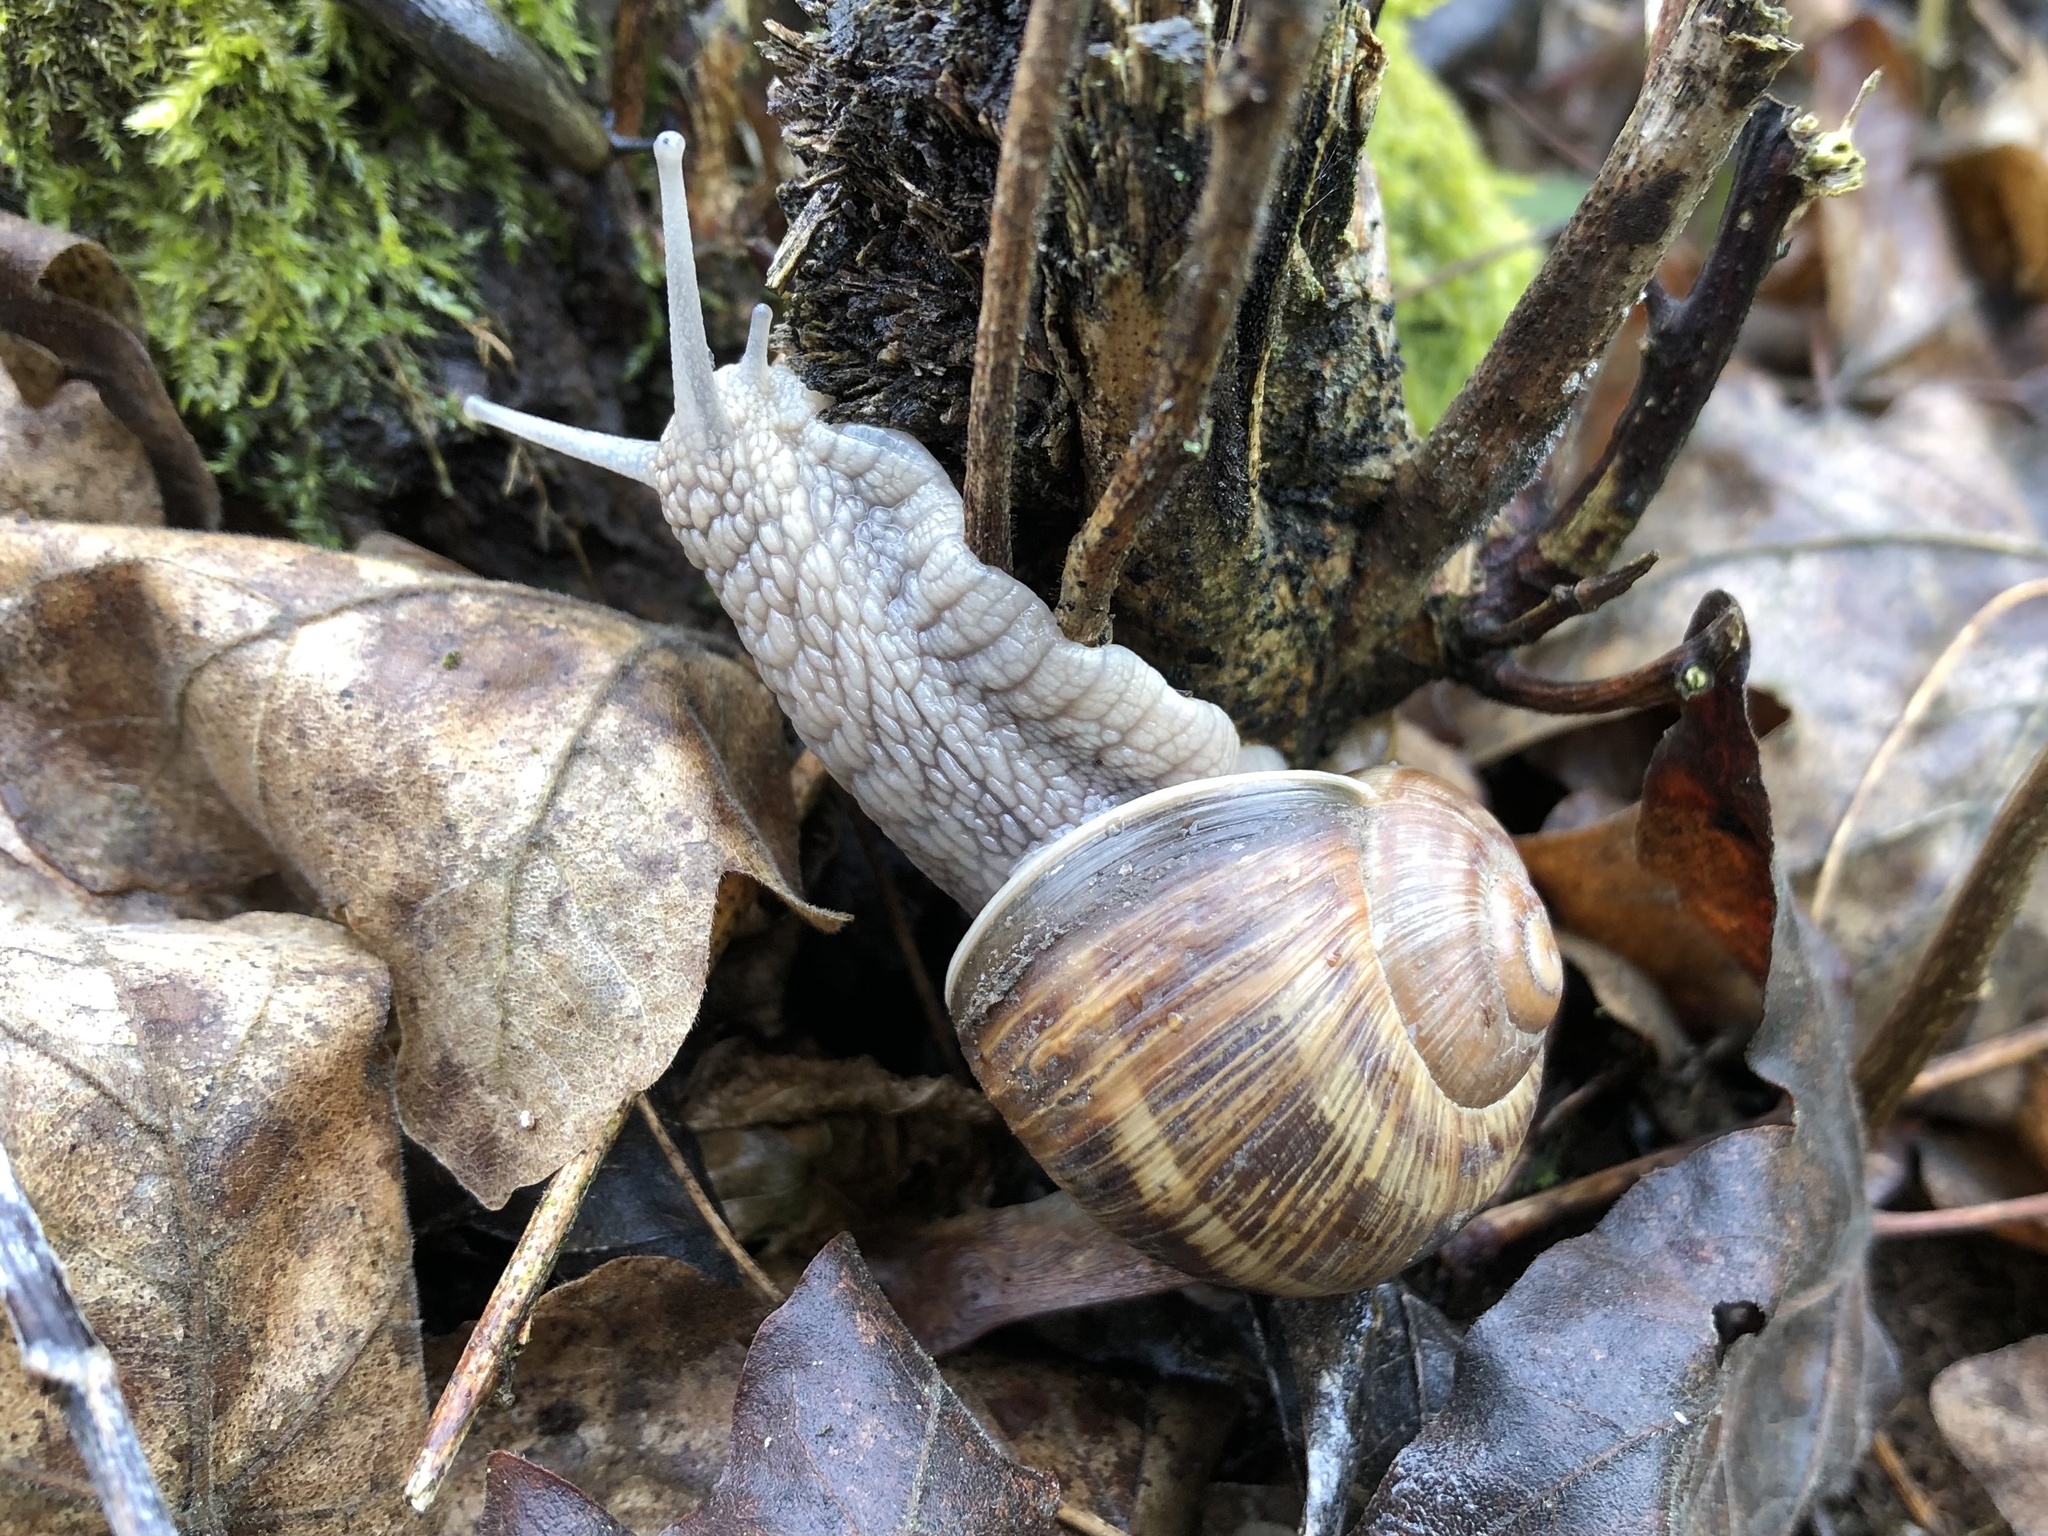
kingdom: Animalia
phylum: Mollusca
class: Gastropoda
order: Stylommatophora
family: Helicidae
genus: Helix
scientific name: Helix pomatia
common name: Roman snail
